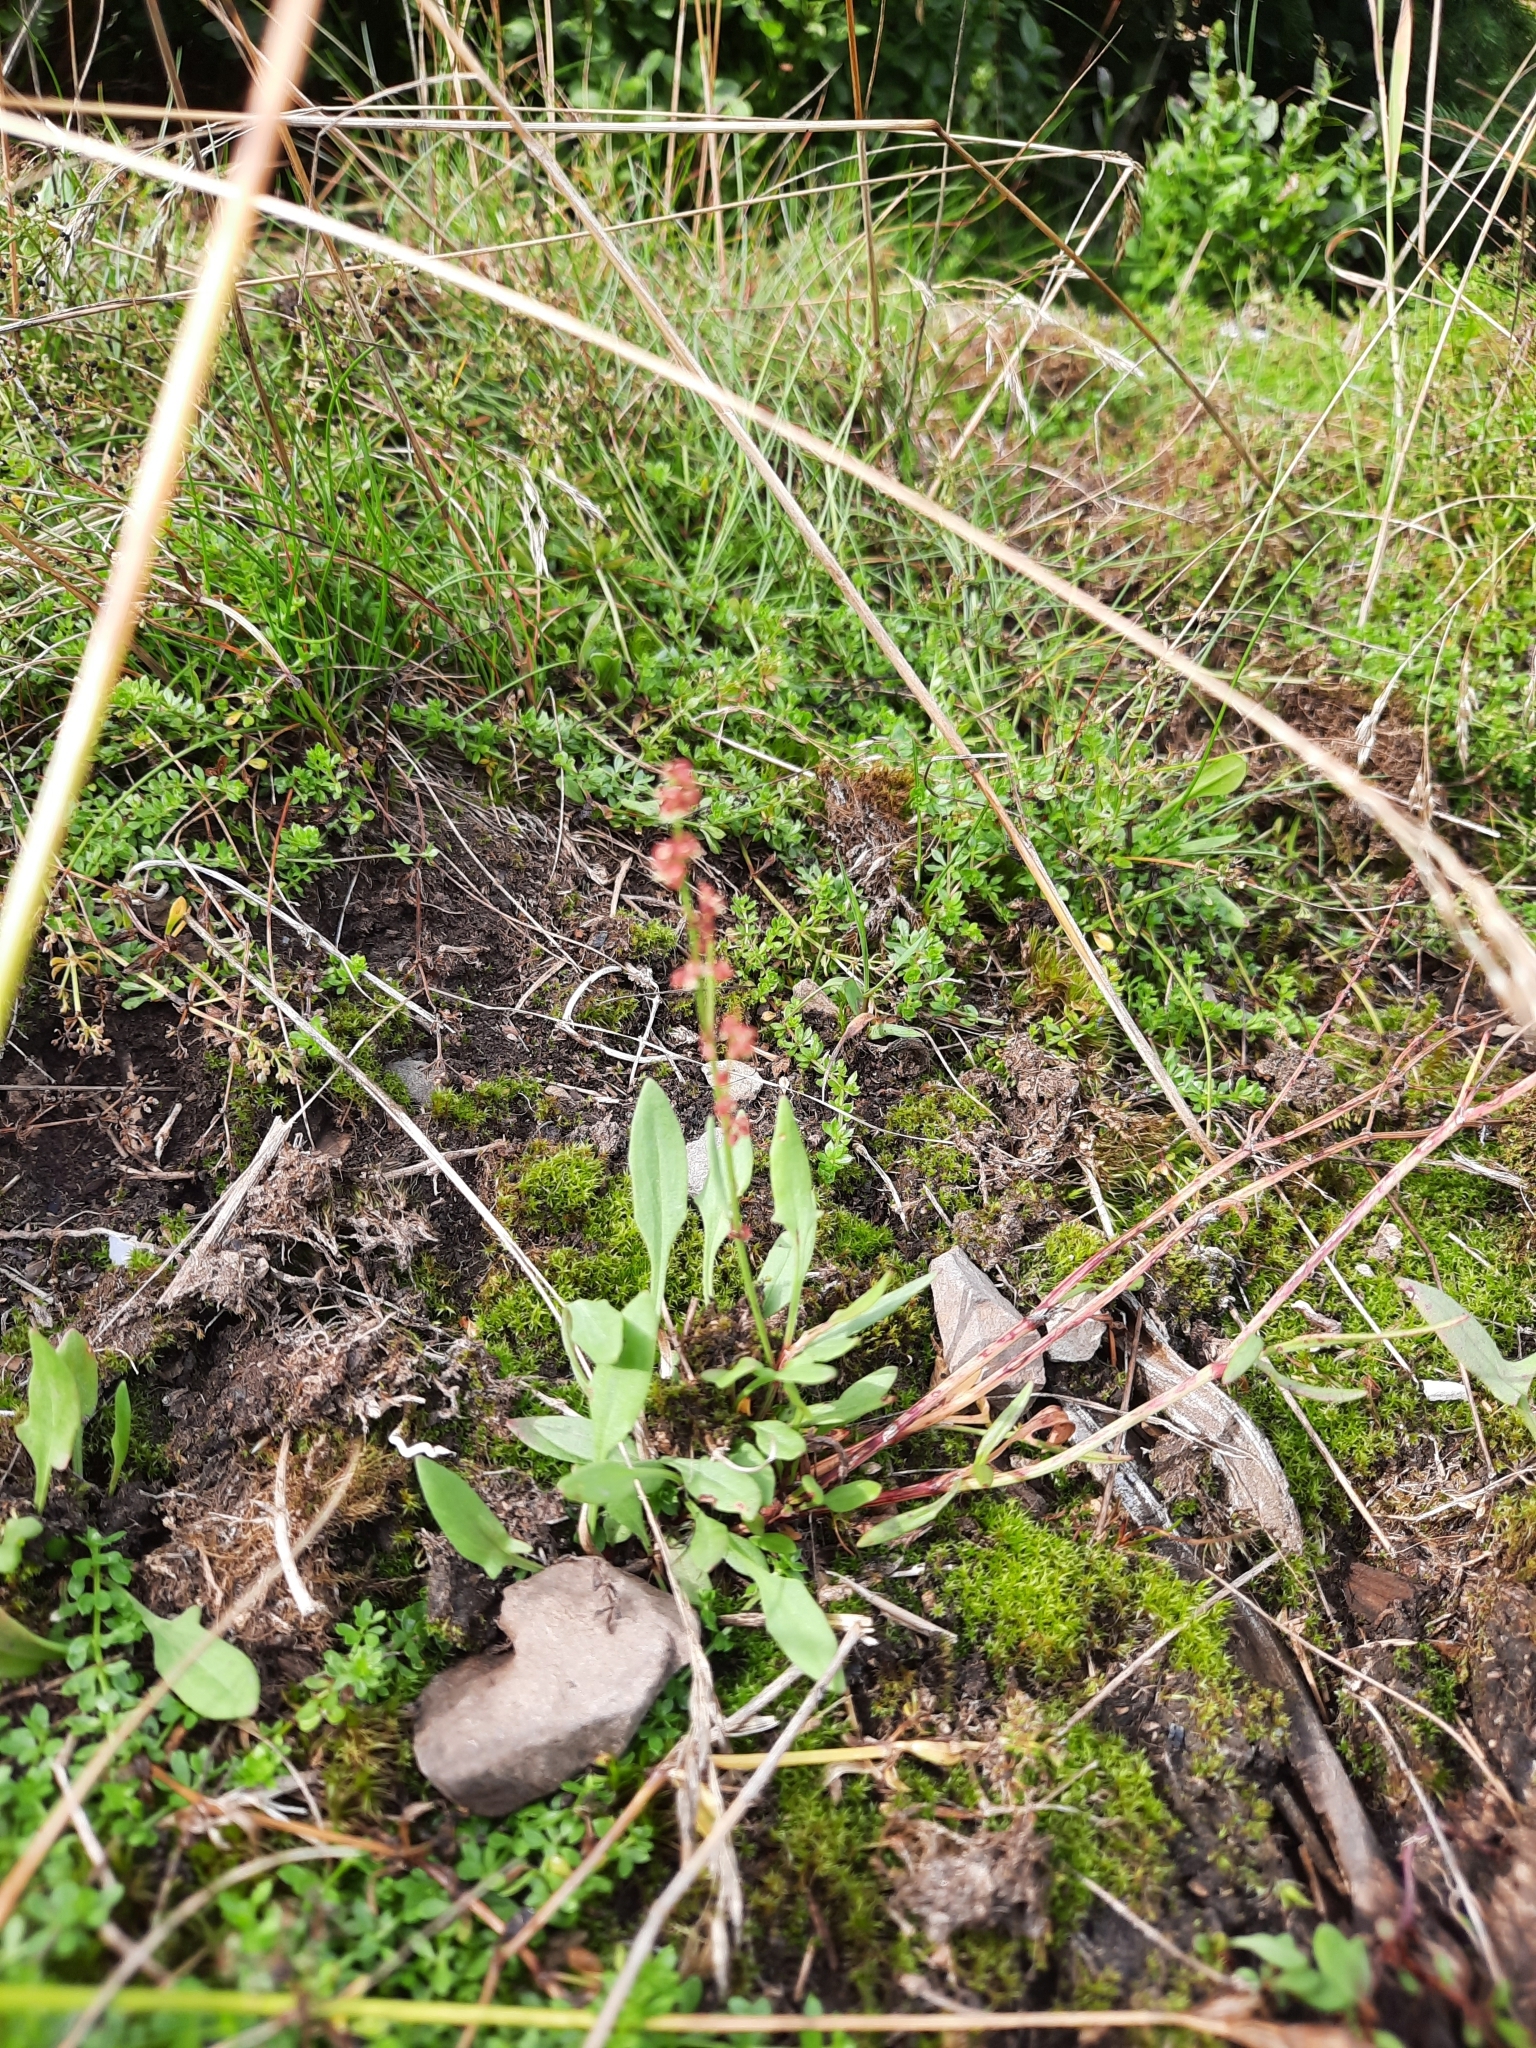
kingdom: Plantae
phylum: Tracheophyta
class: Magnoliopsida
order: Caryophyllales
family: Polygonaceae
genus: Rumex
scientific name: Rumex acetosella
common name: Common sheep sorrel
